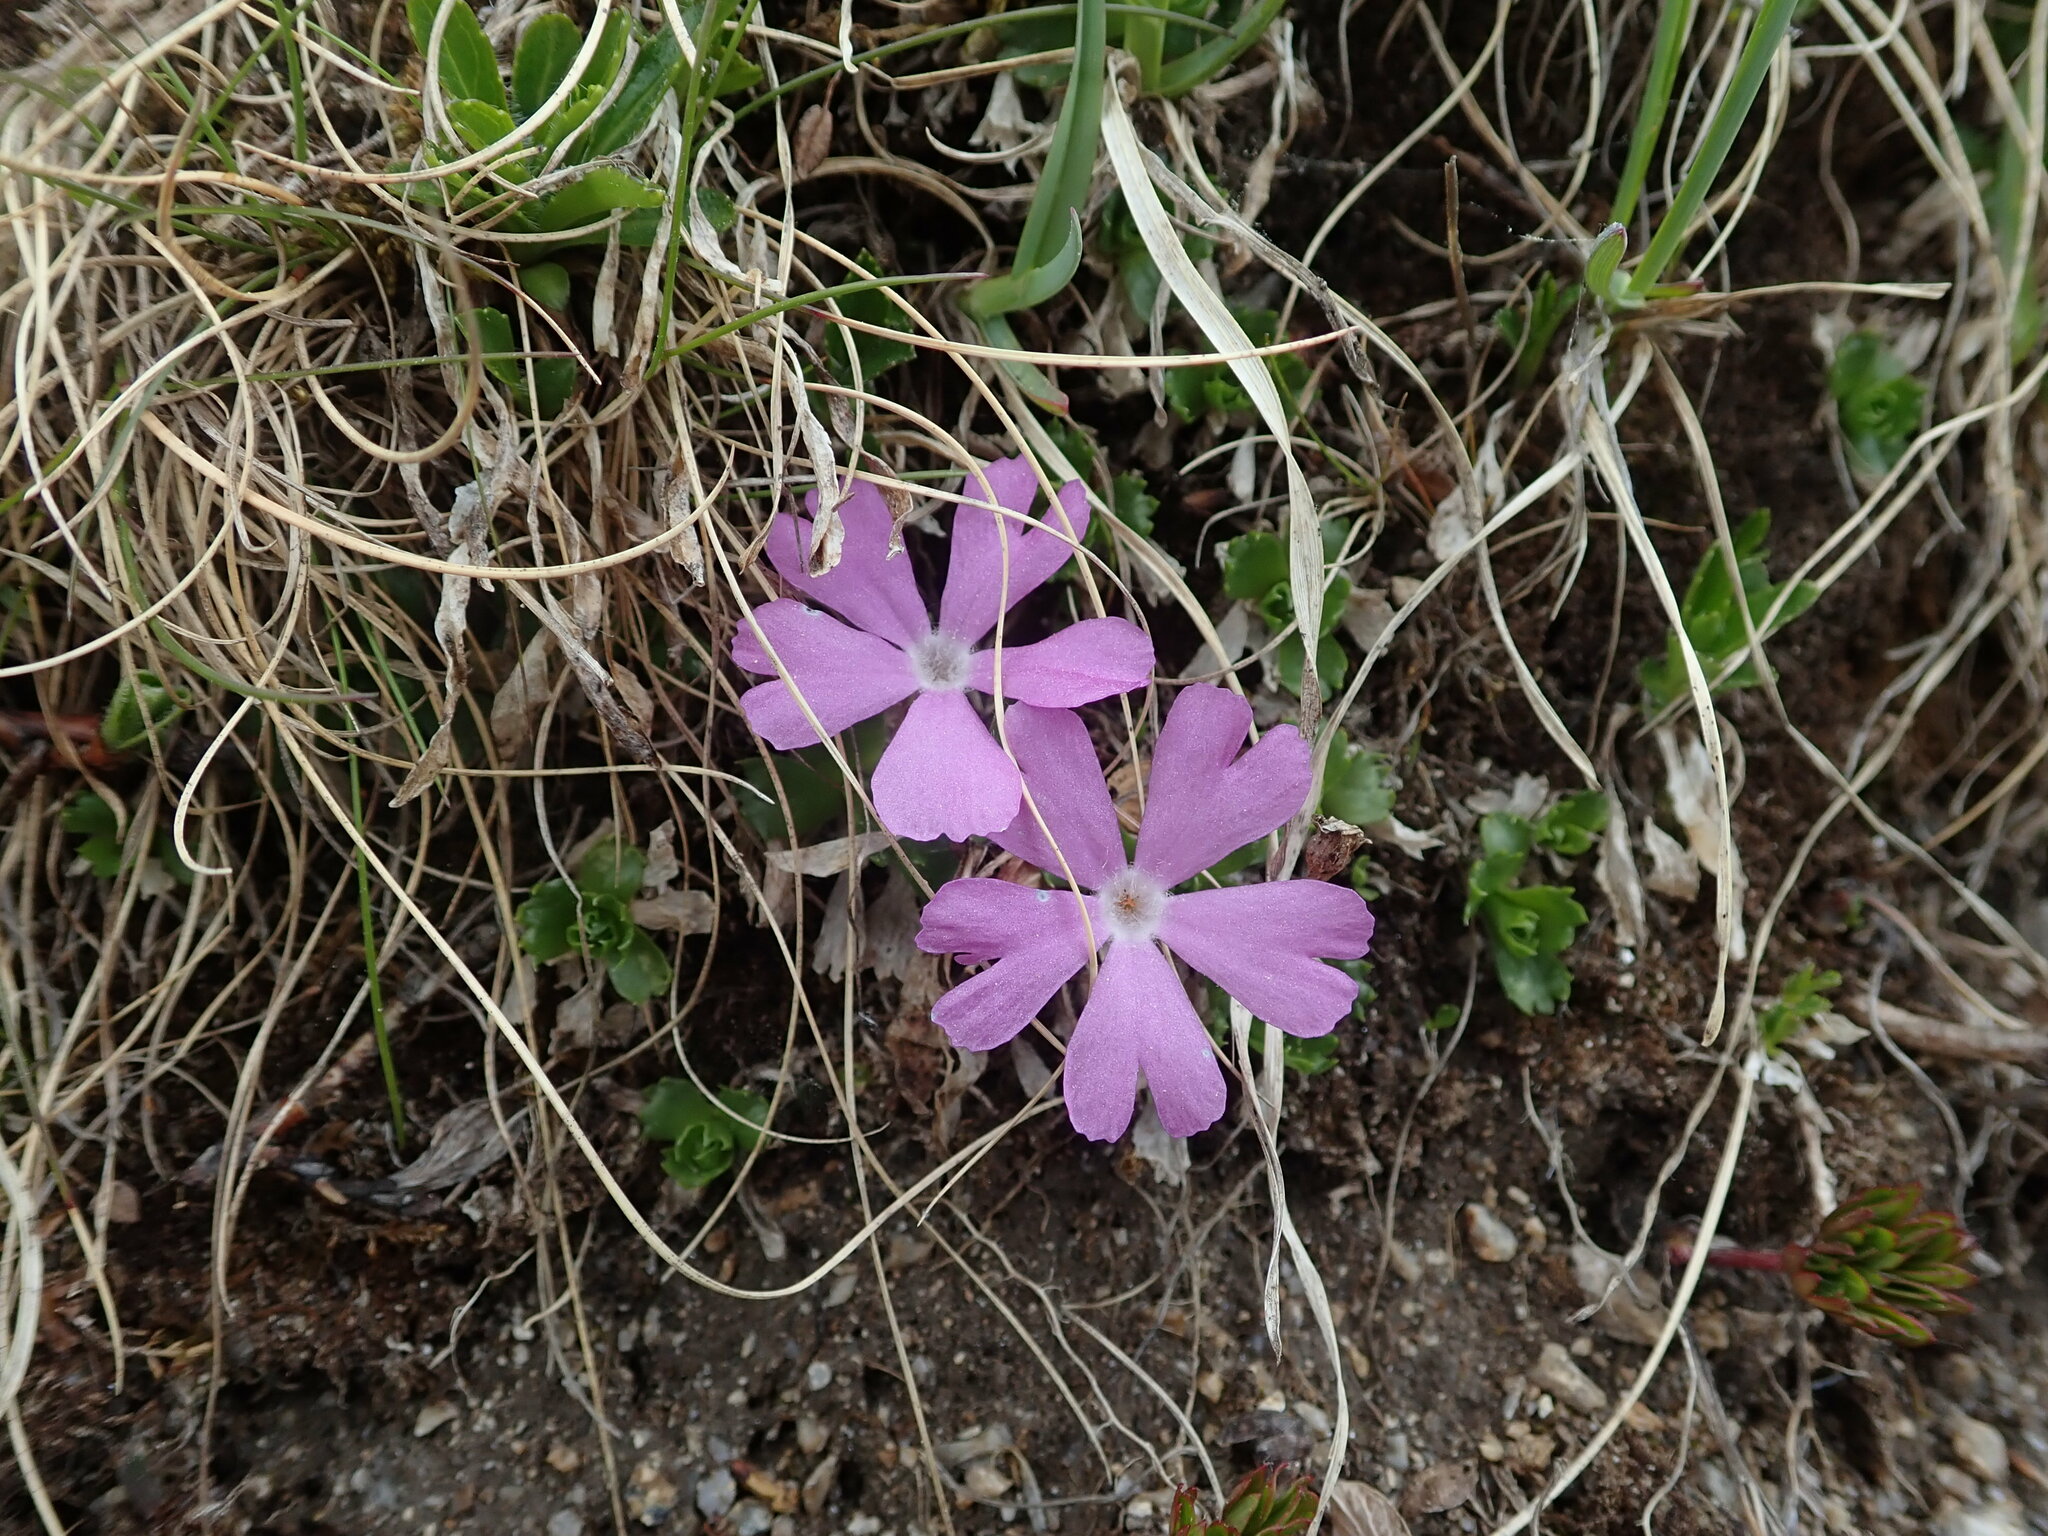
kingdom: Plantae
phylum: Tracheophyta
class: Magnoliopsida
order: Ericales
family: Primulaceae
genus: Primula
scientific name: Primula minima
